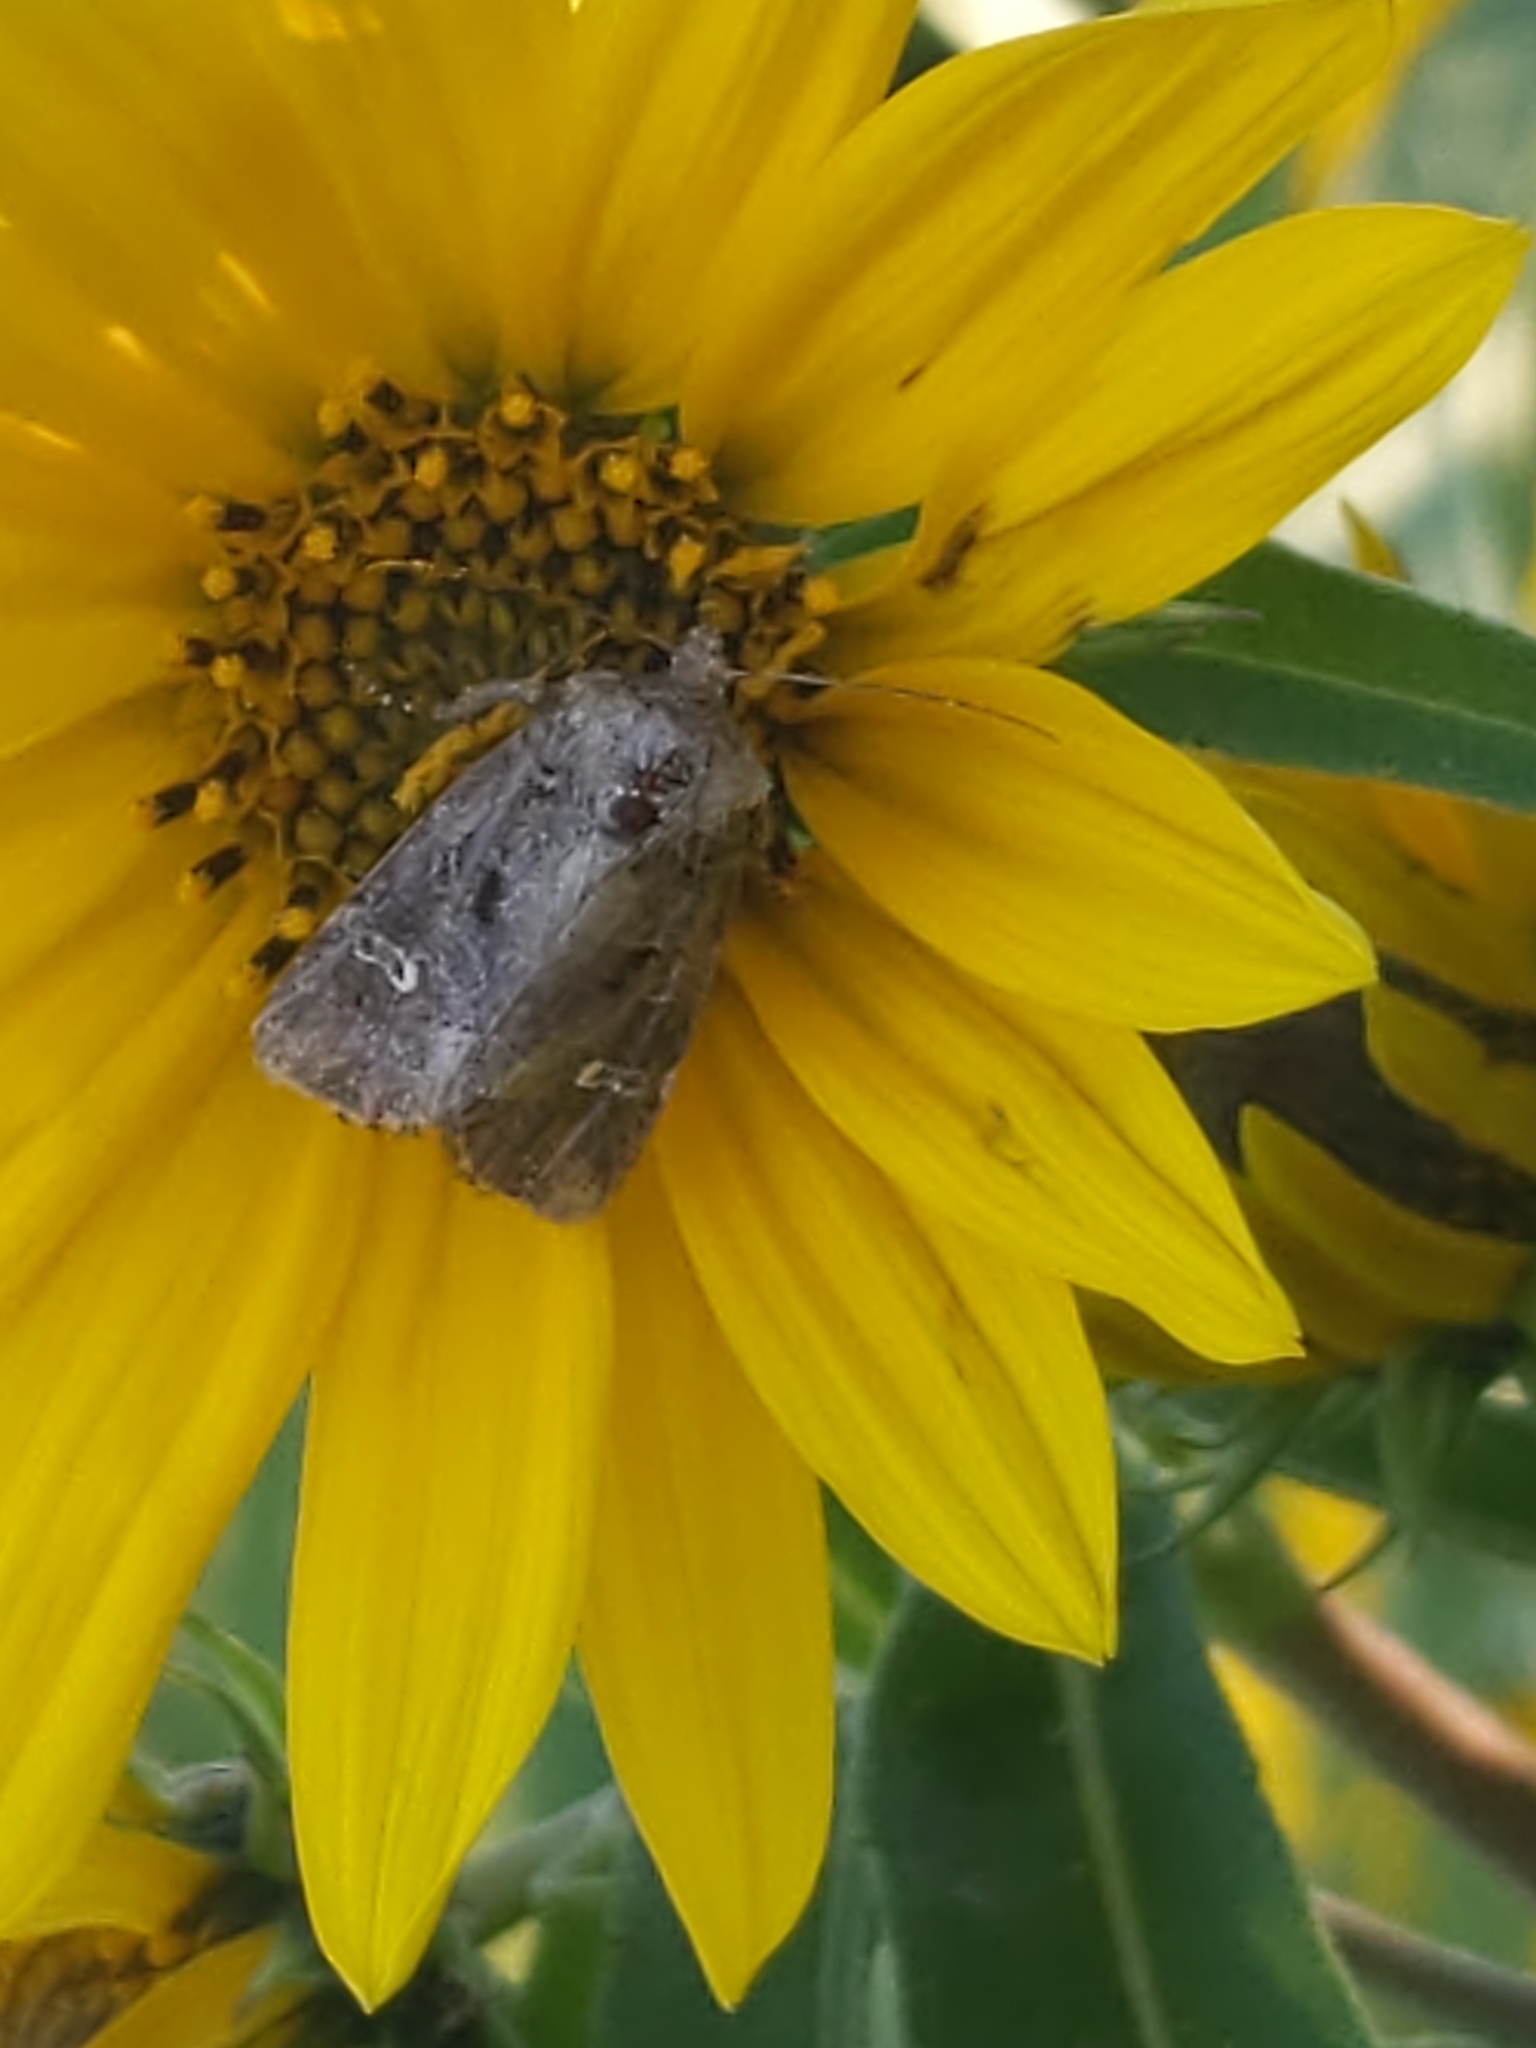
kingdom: Animalia
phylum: Arthropoda
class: Insecta
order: Lepidoptera
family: Noctuidae
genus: Lacinipolia
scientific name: Lacinipolia renigera
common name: Kidney-spotted minor
